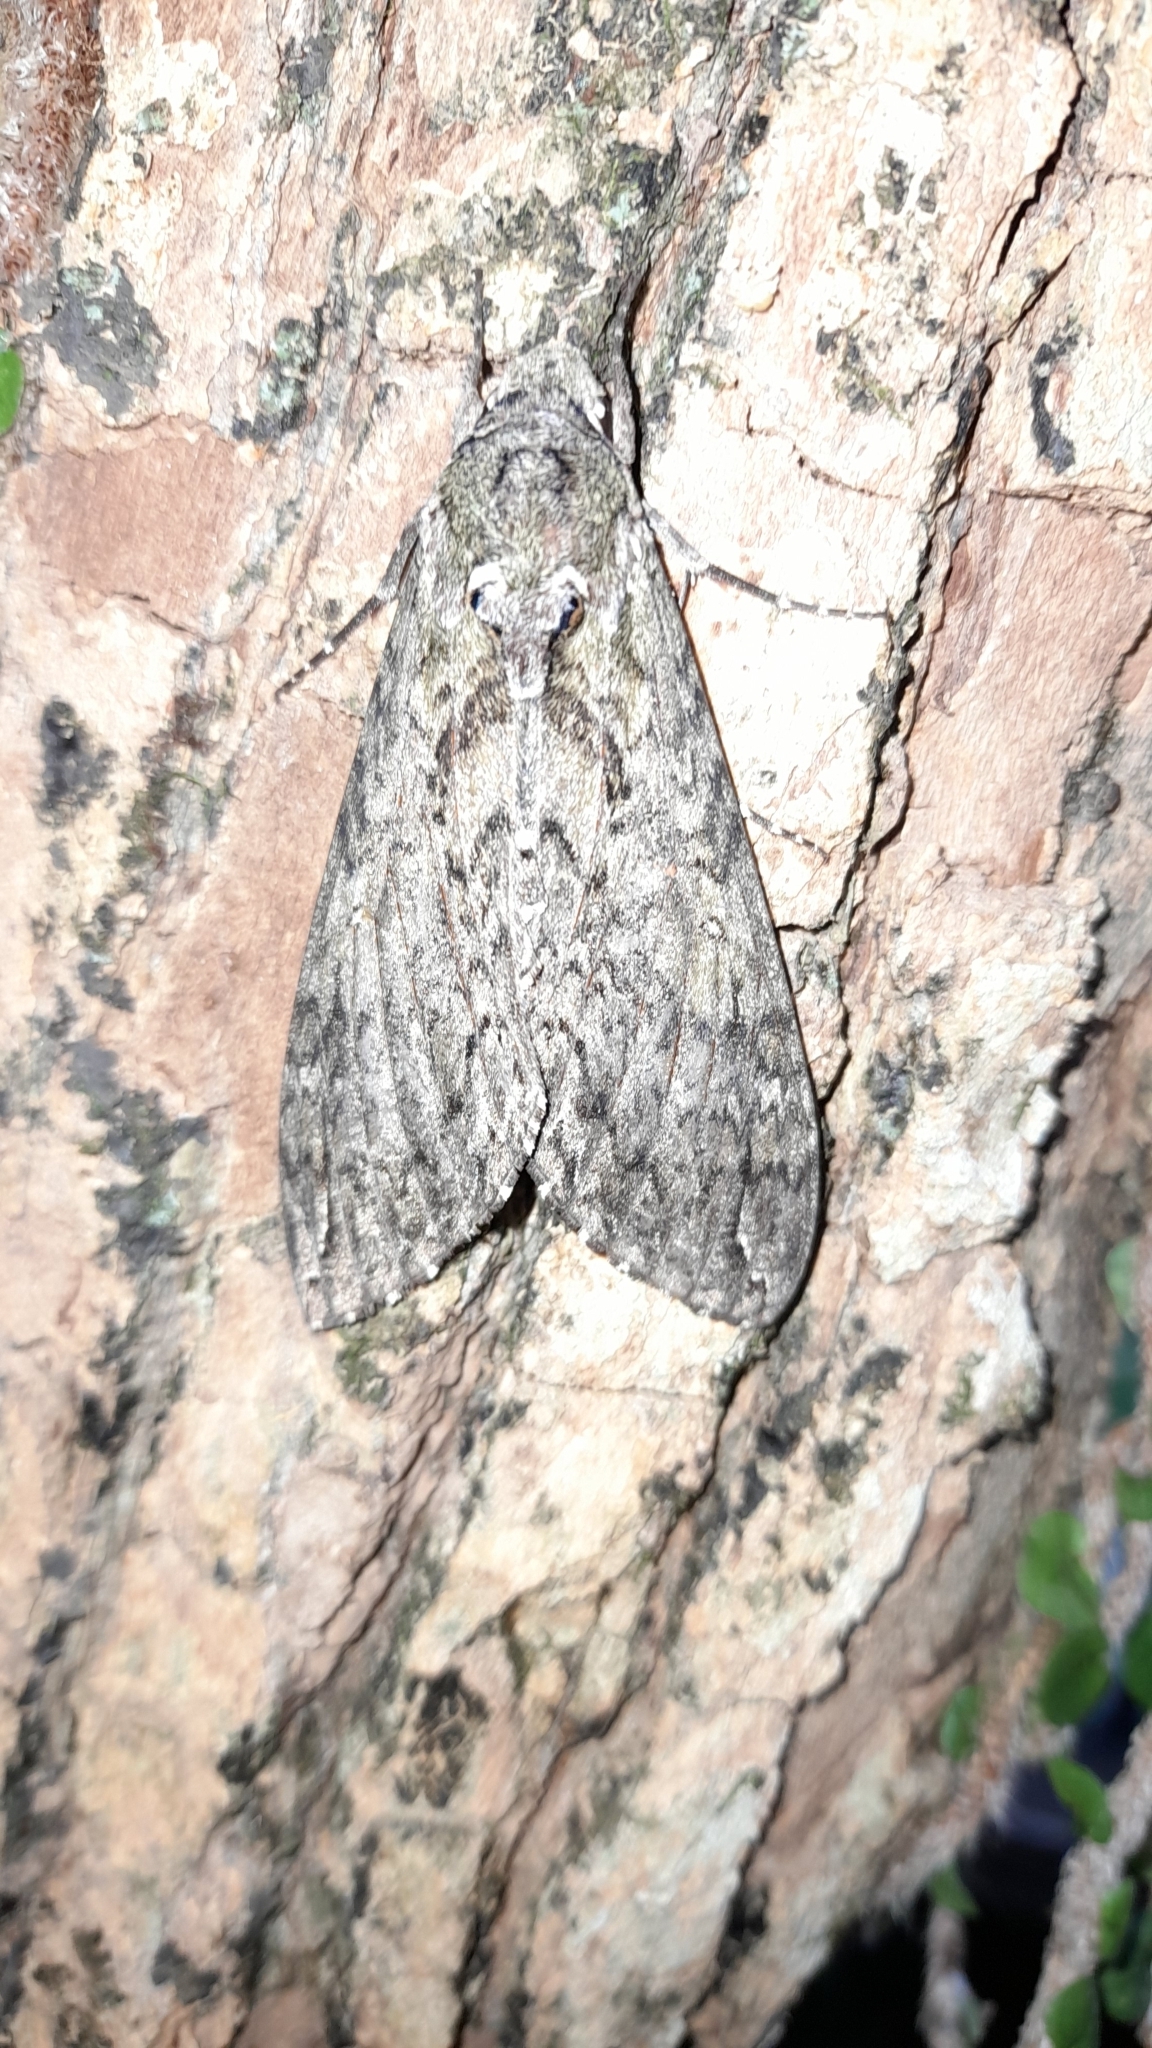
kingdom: Animalia
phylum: Arthropoda
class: Insecta
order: Lepidoptera
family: Sphingidae
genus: Manduca
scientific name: Manduca afflicta
